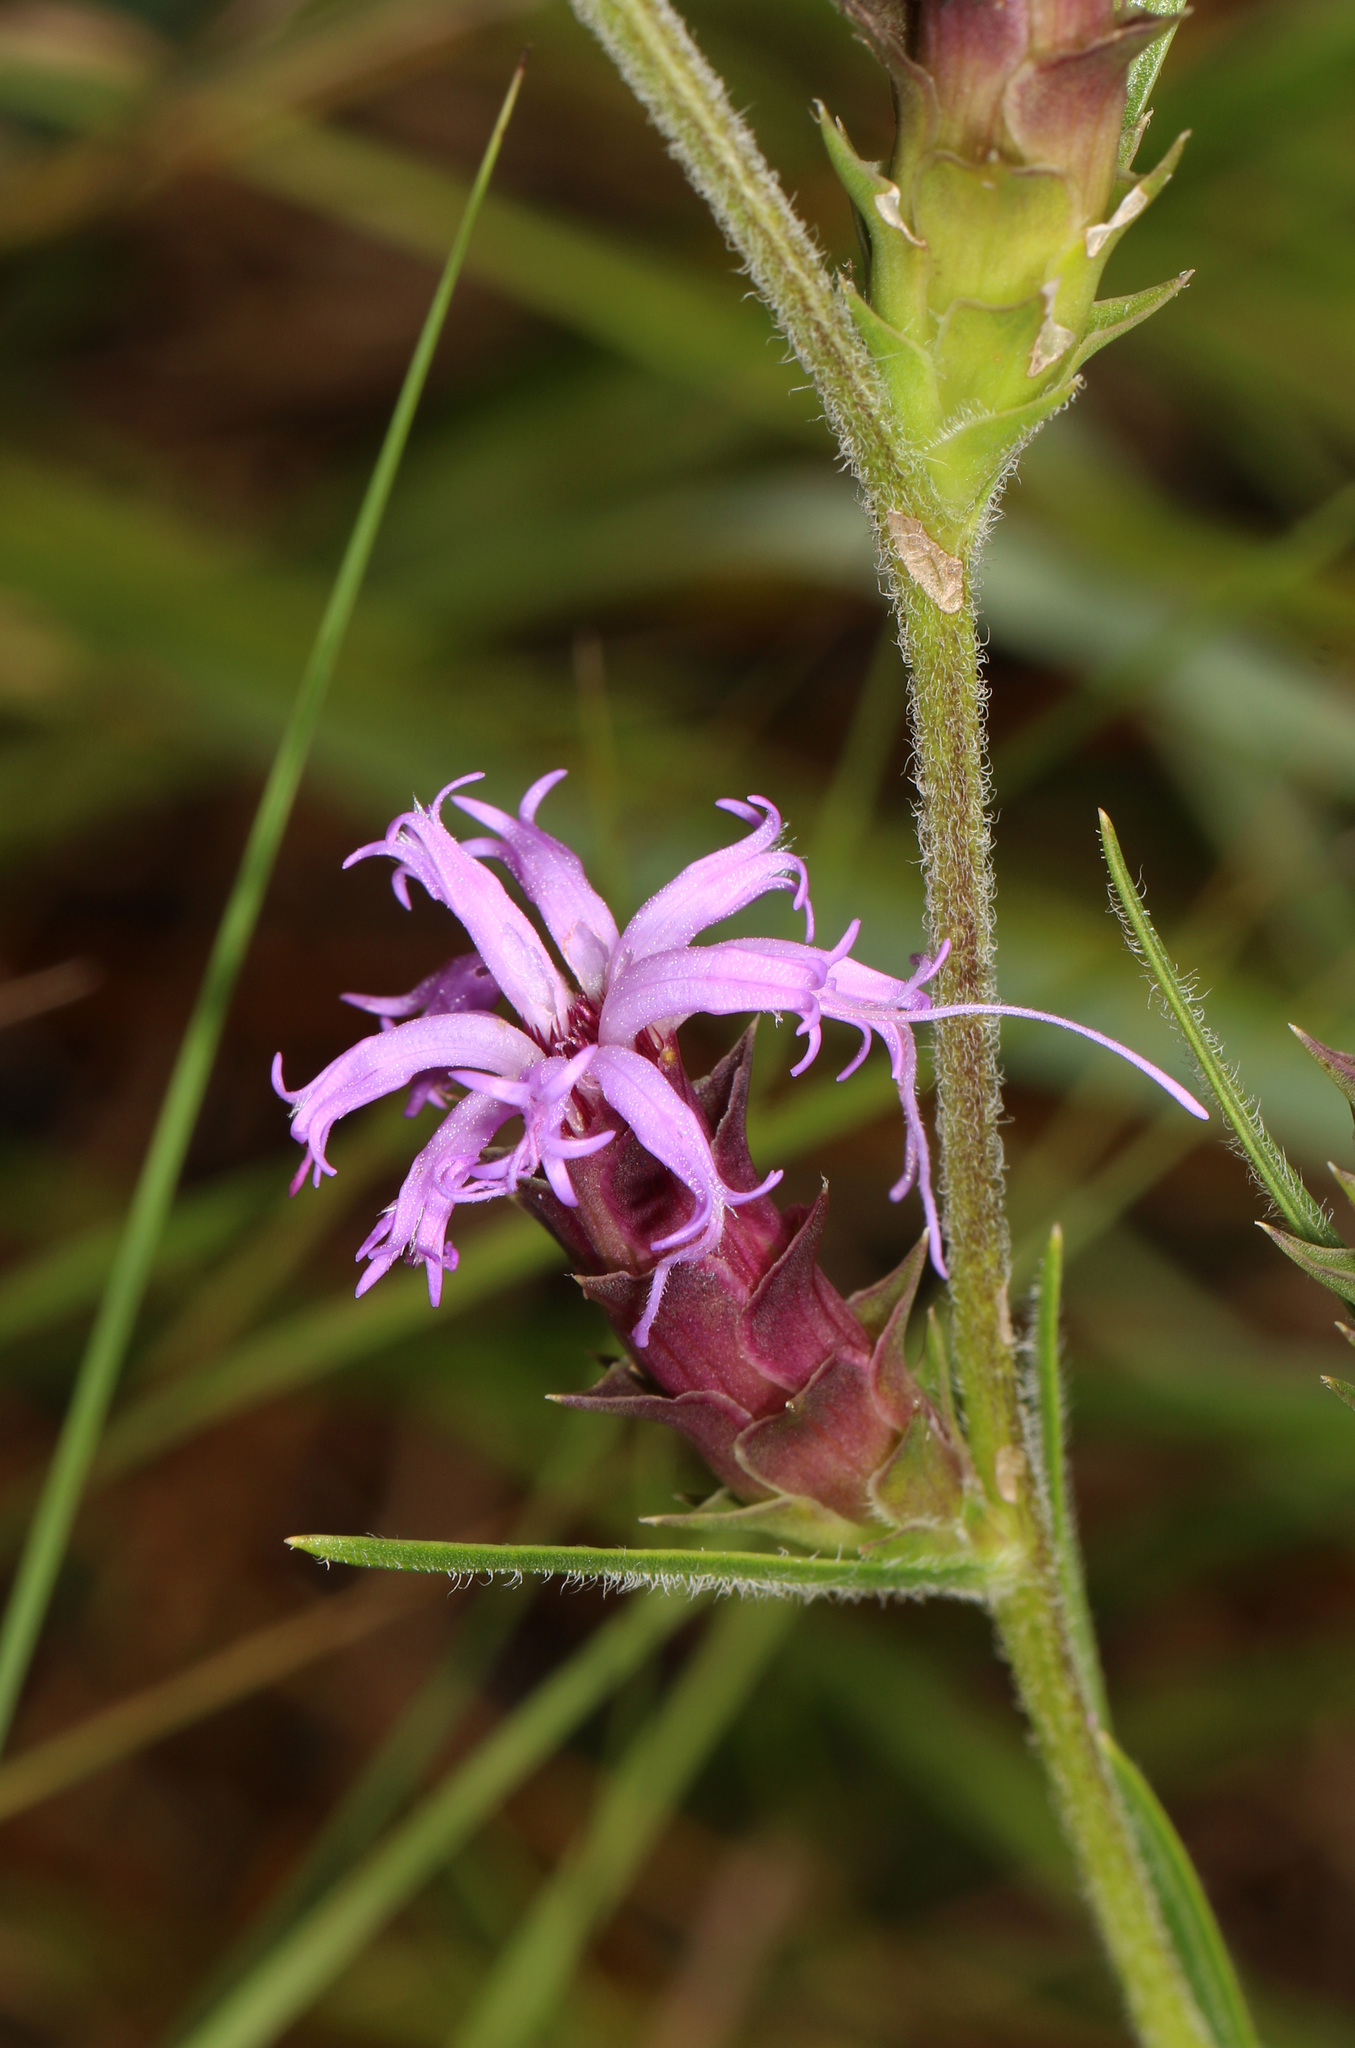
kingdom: Plantae
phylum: Tracheophyta
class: Magnoliopsida
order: Asterales
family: Asteraceae
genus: Liatris
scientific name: Liatris squarrosa
